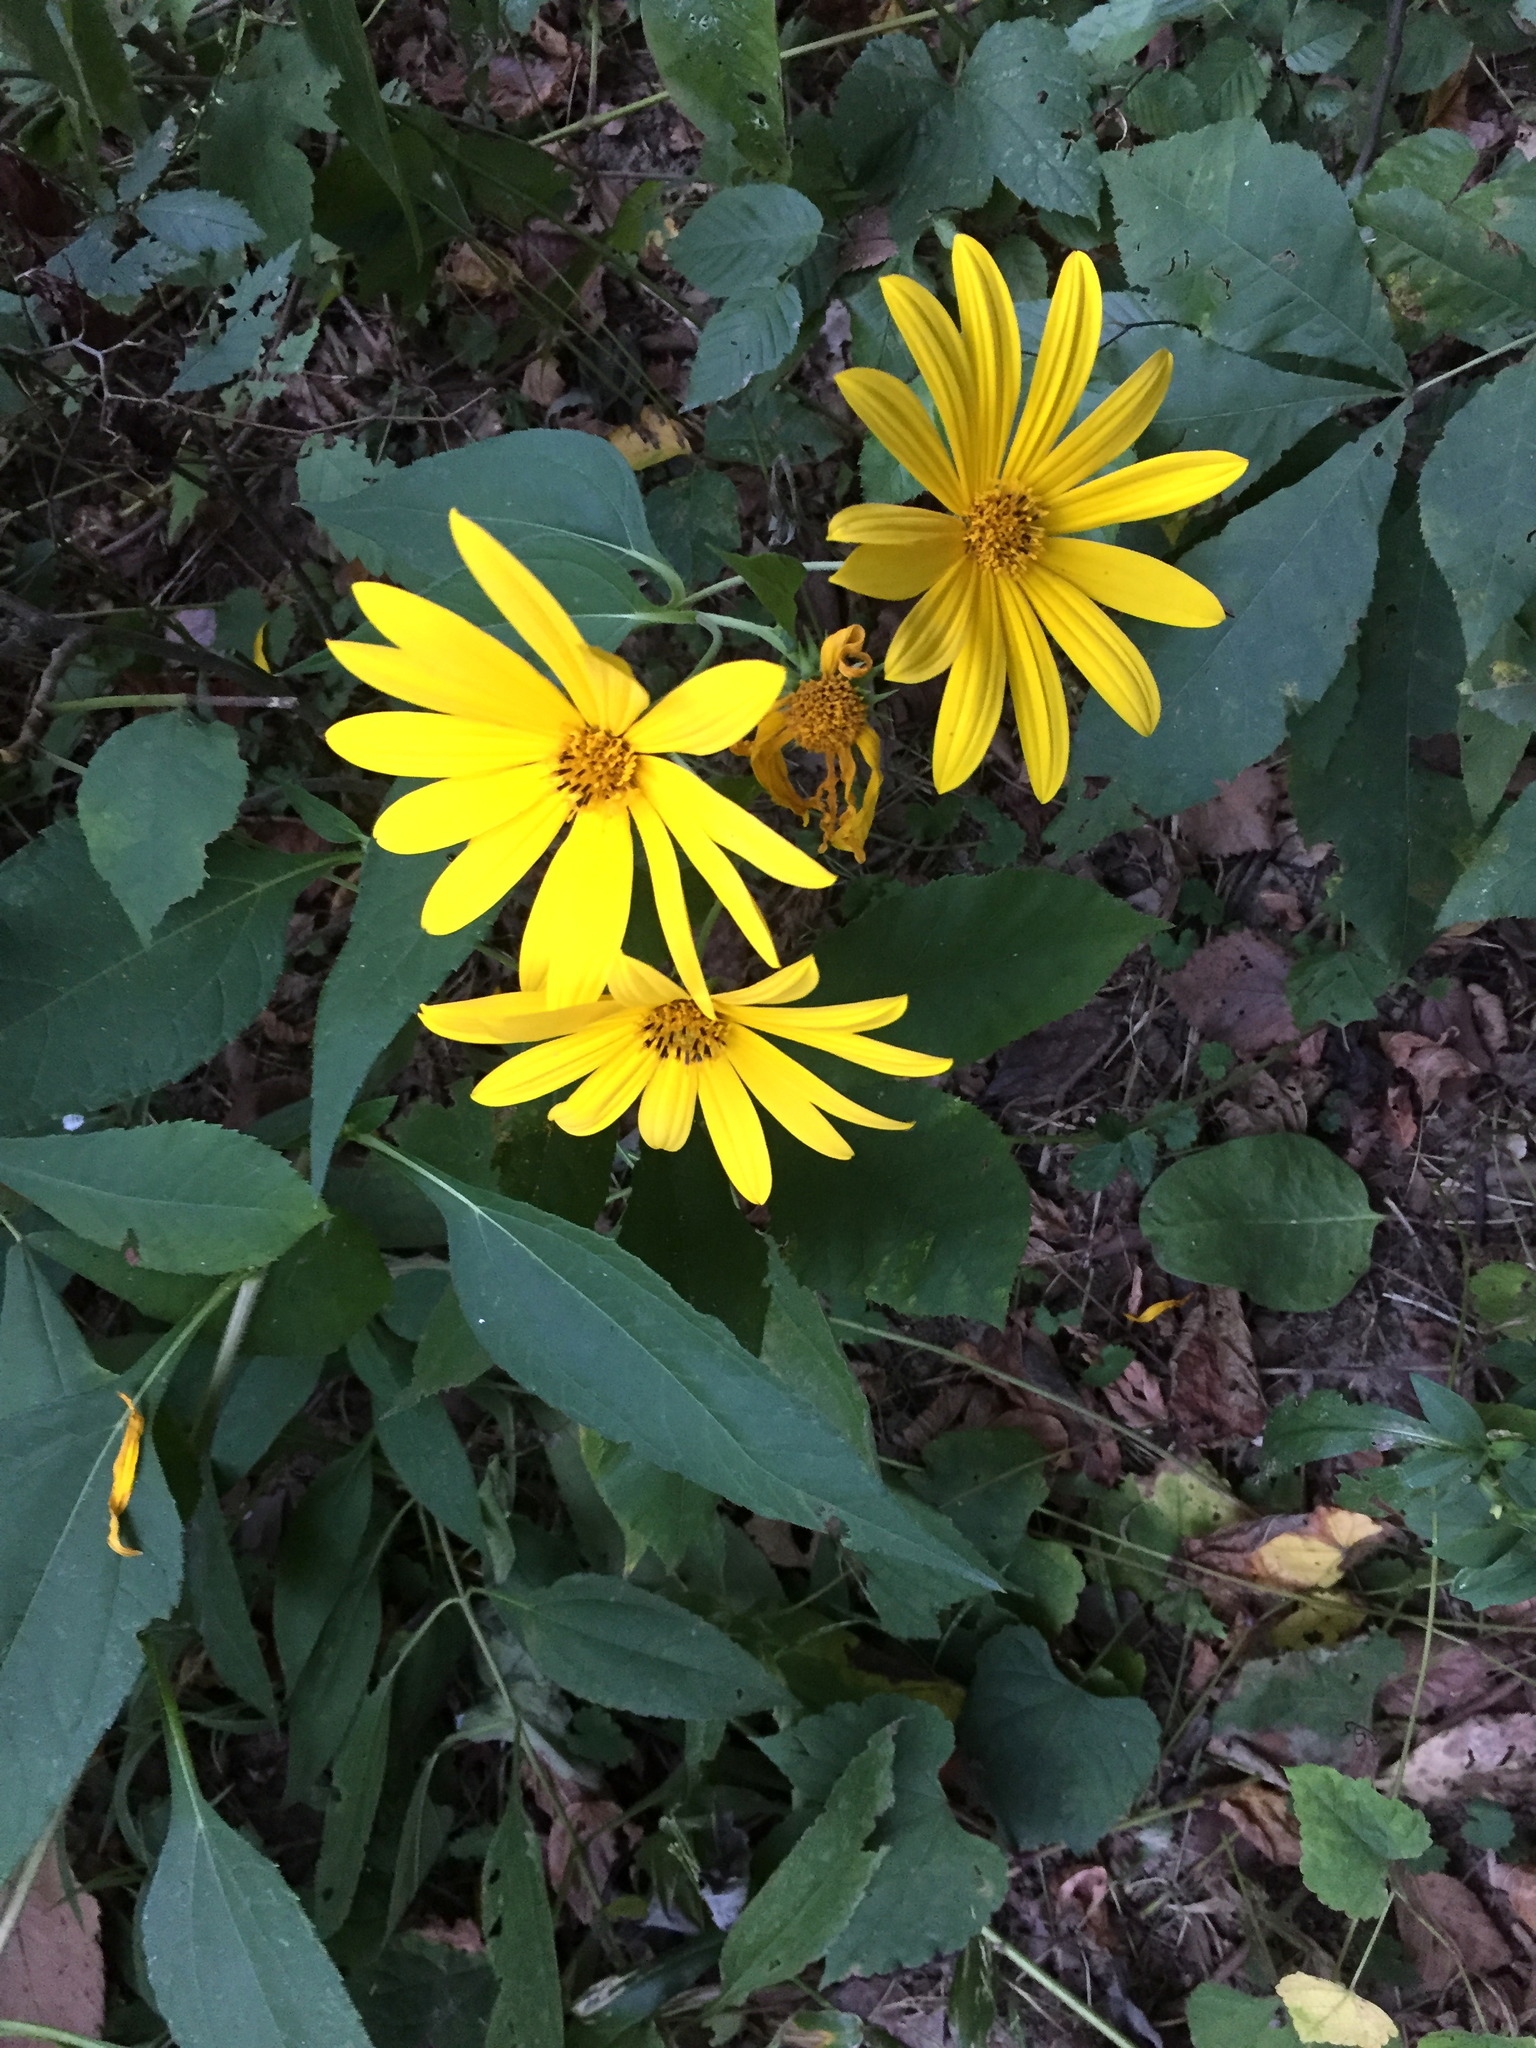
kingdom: Plantae
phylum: Tracheophyta
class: Magnoliopsida
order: Asterales
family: Asteraceae
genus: Helianthus
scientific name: Helianthus tuberosus
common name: Jerusalem artichoke
